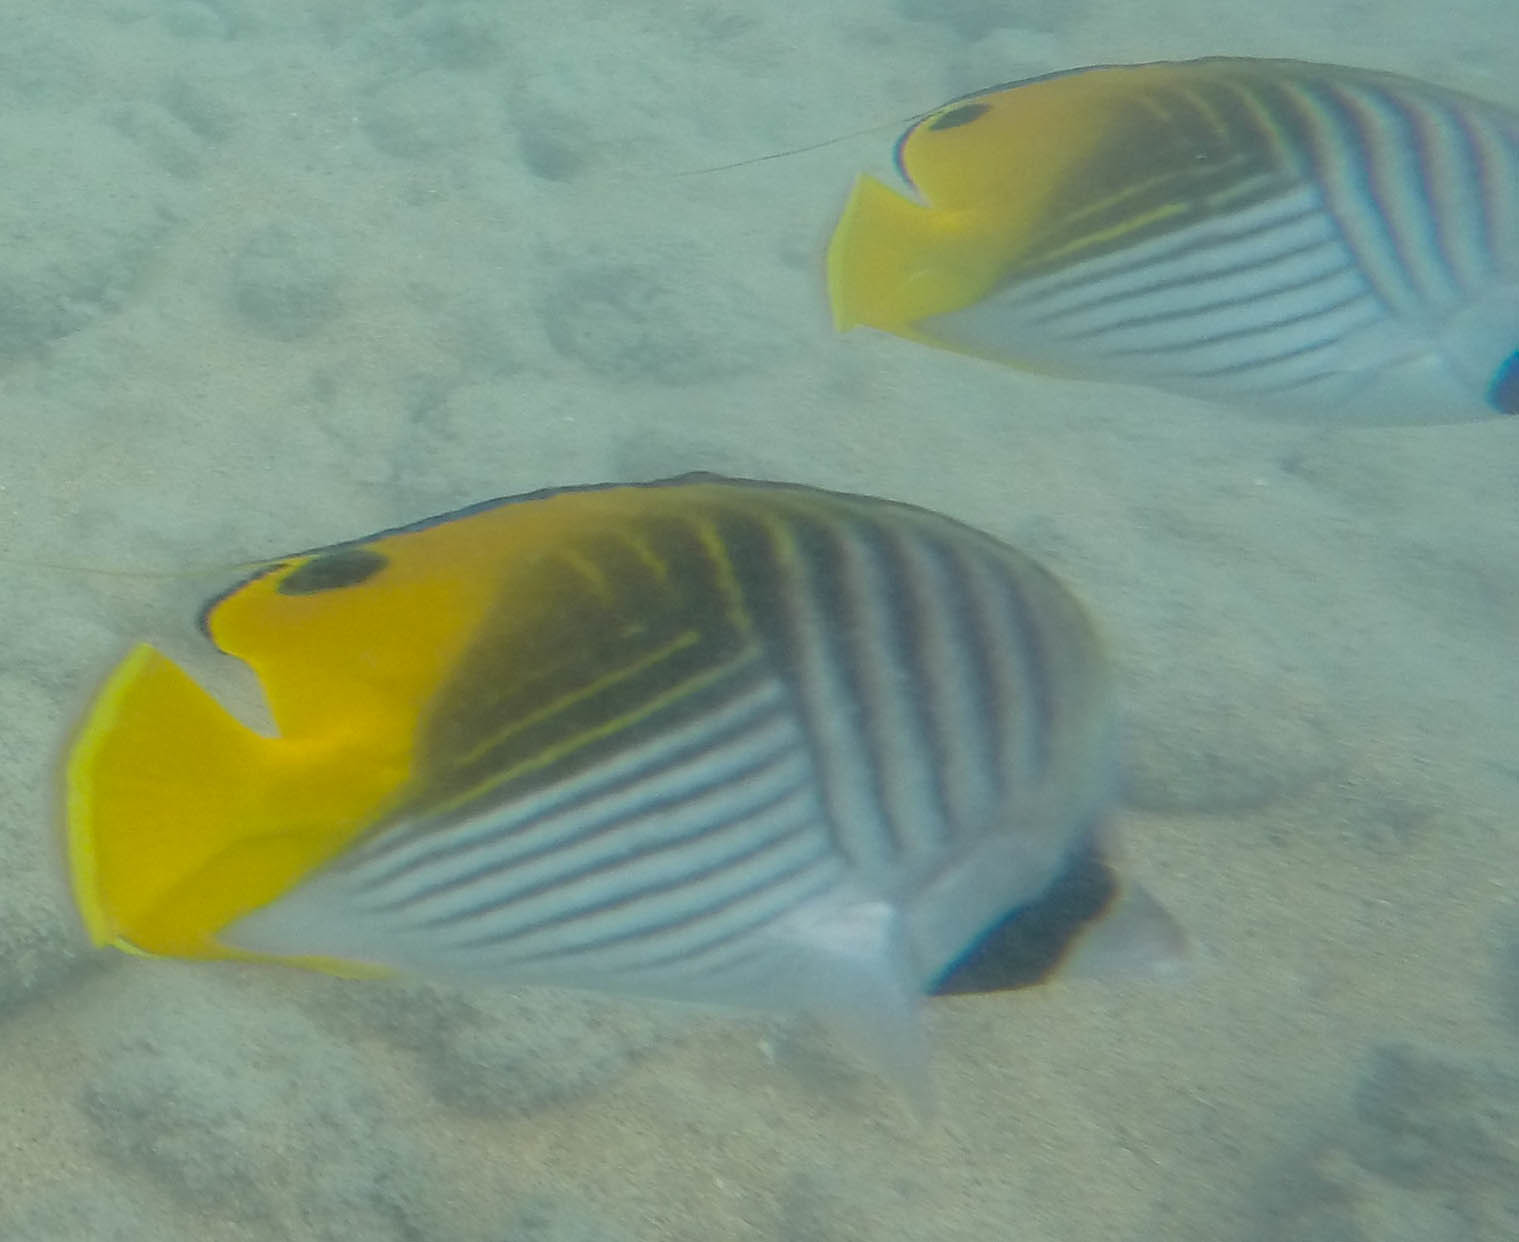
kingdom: Animalia
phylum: Chordata
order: Perciformes
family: Chaetodontidae
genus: Chaetodon
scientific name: Chaetodon auriga
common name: Threadfin butterflyfish
